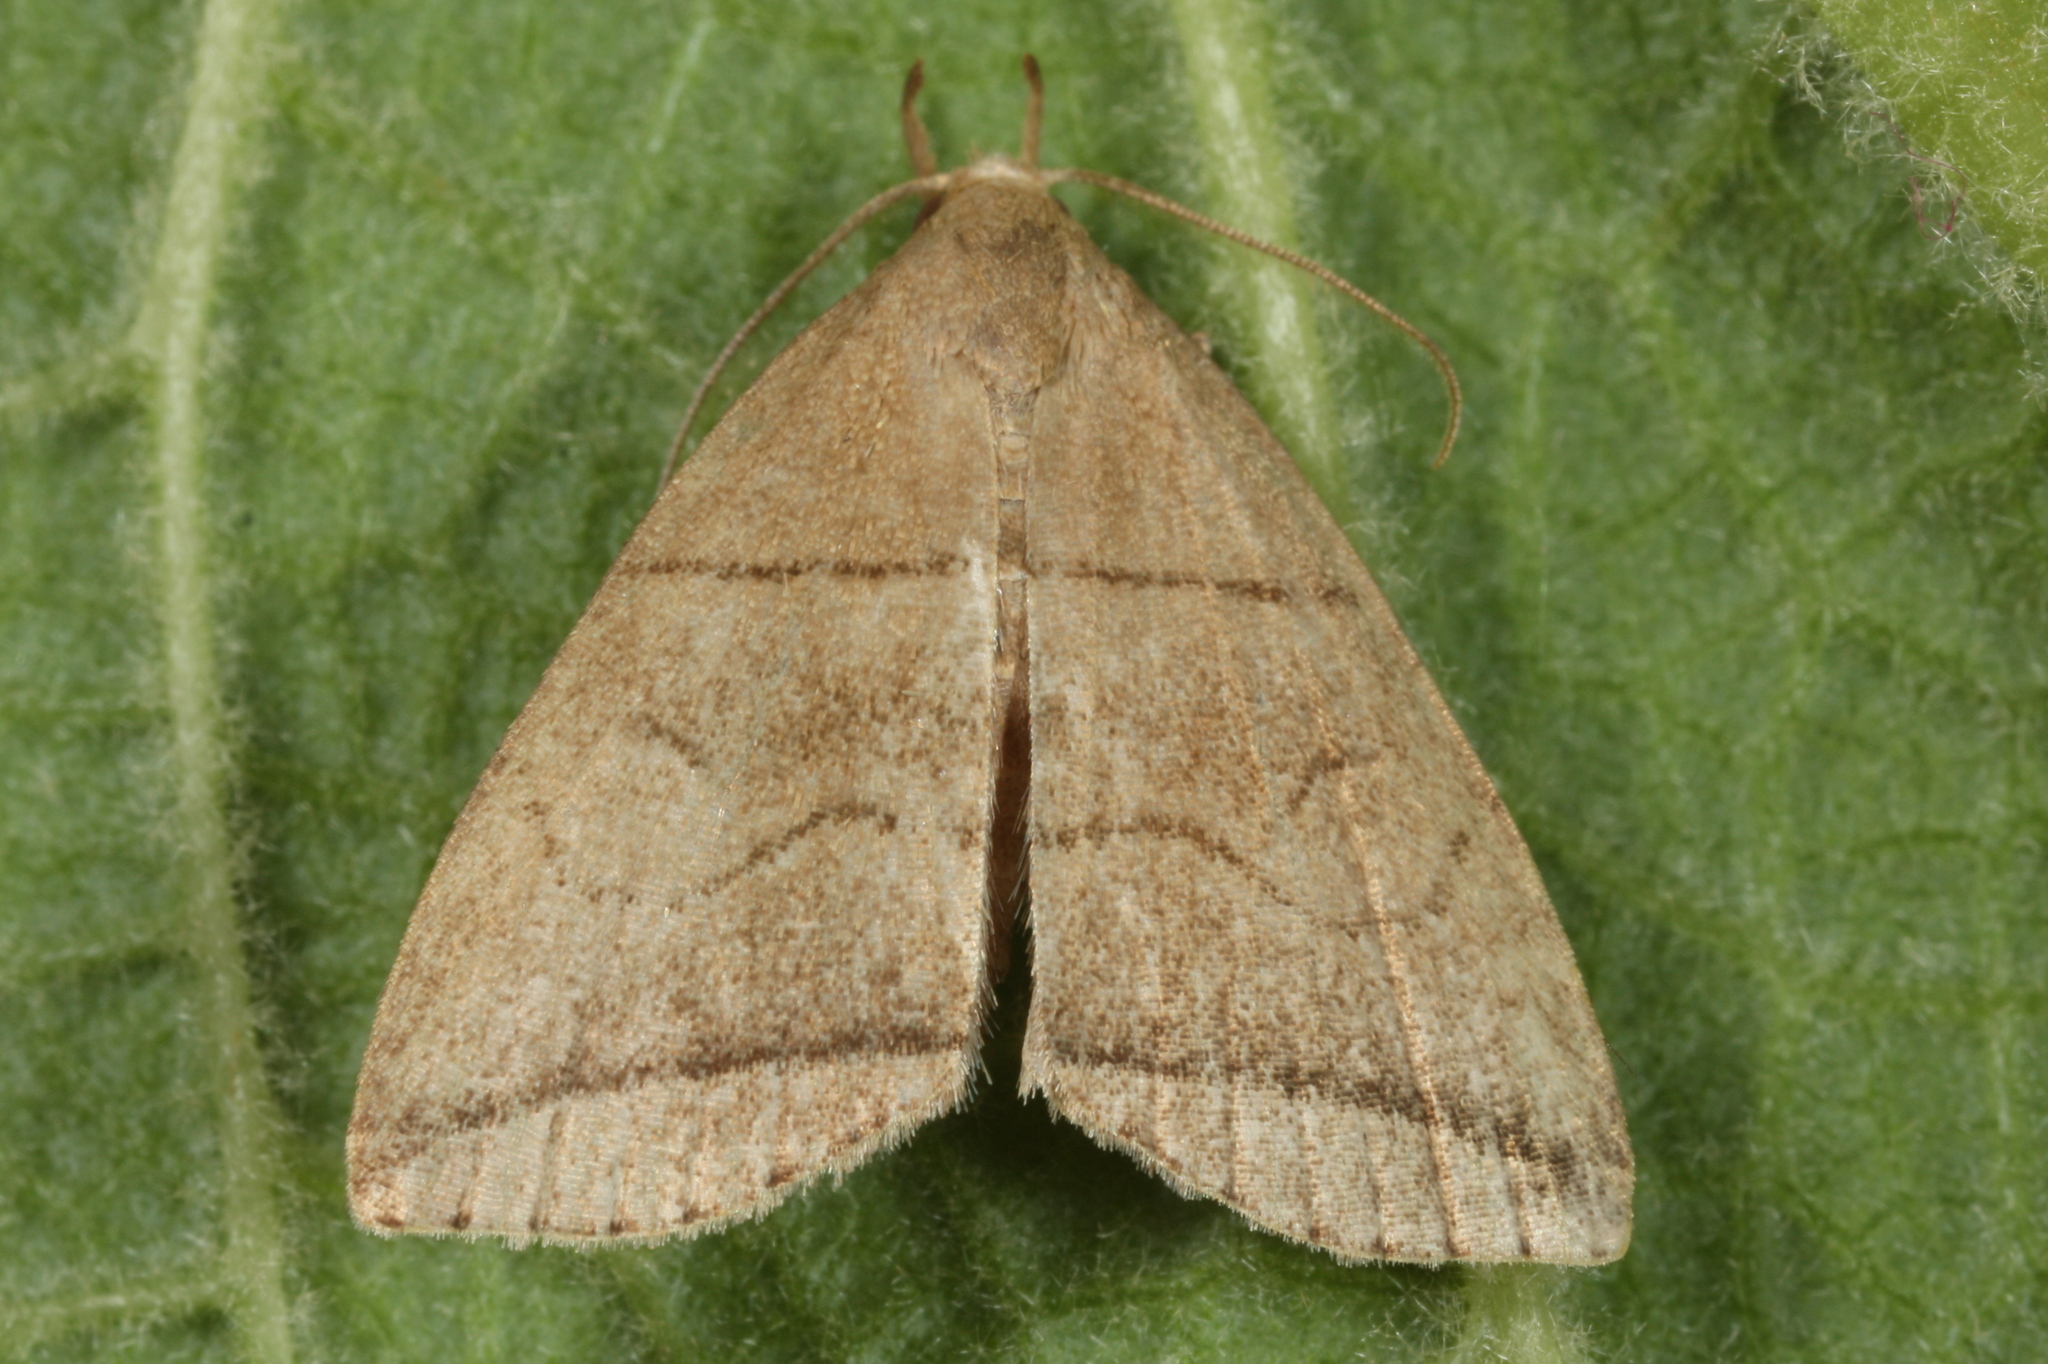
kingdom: Animalia
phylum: Arthropoda
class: Insecta
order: Lepidoptera
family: Erebidae
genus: Herminia
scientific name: Herminia grisealis
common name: Small fan-foot
